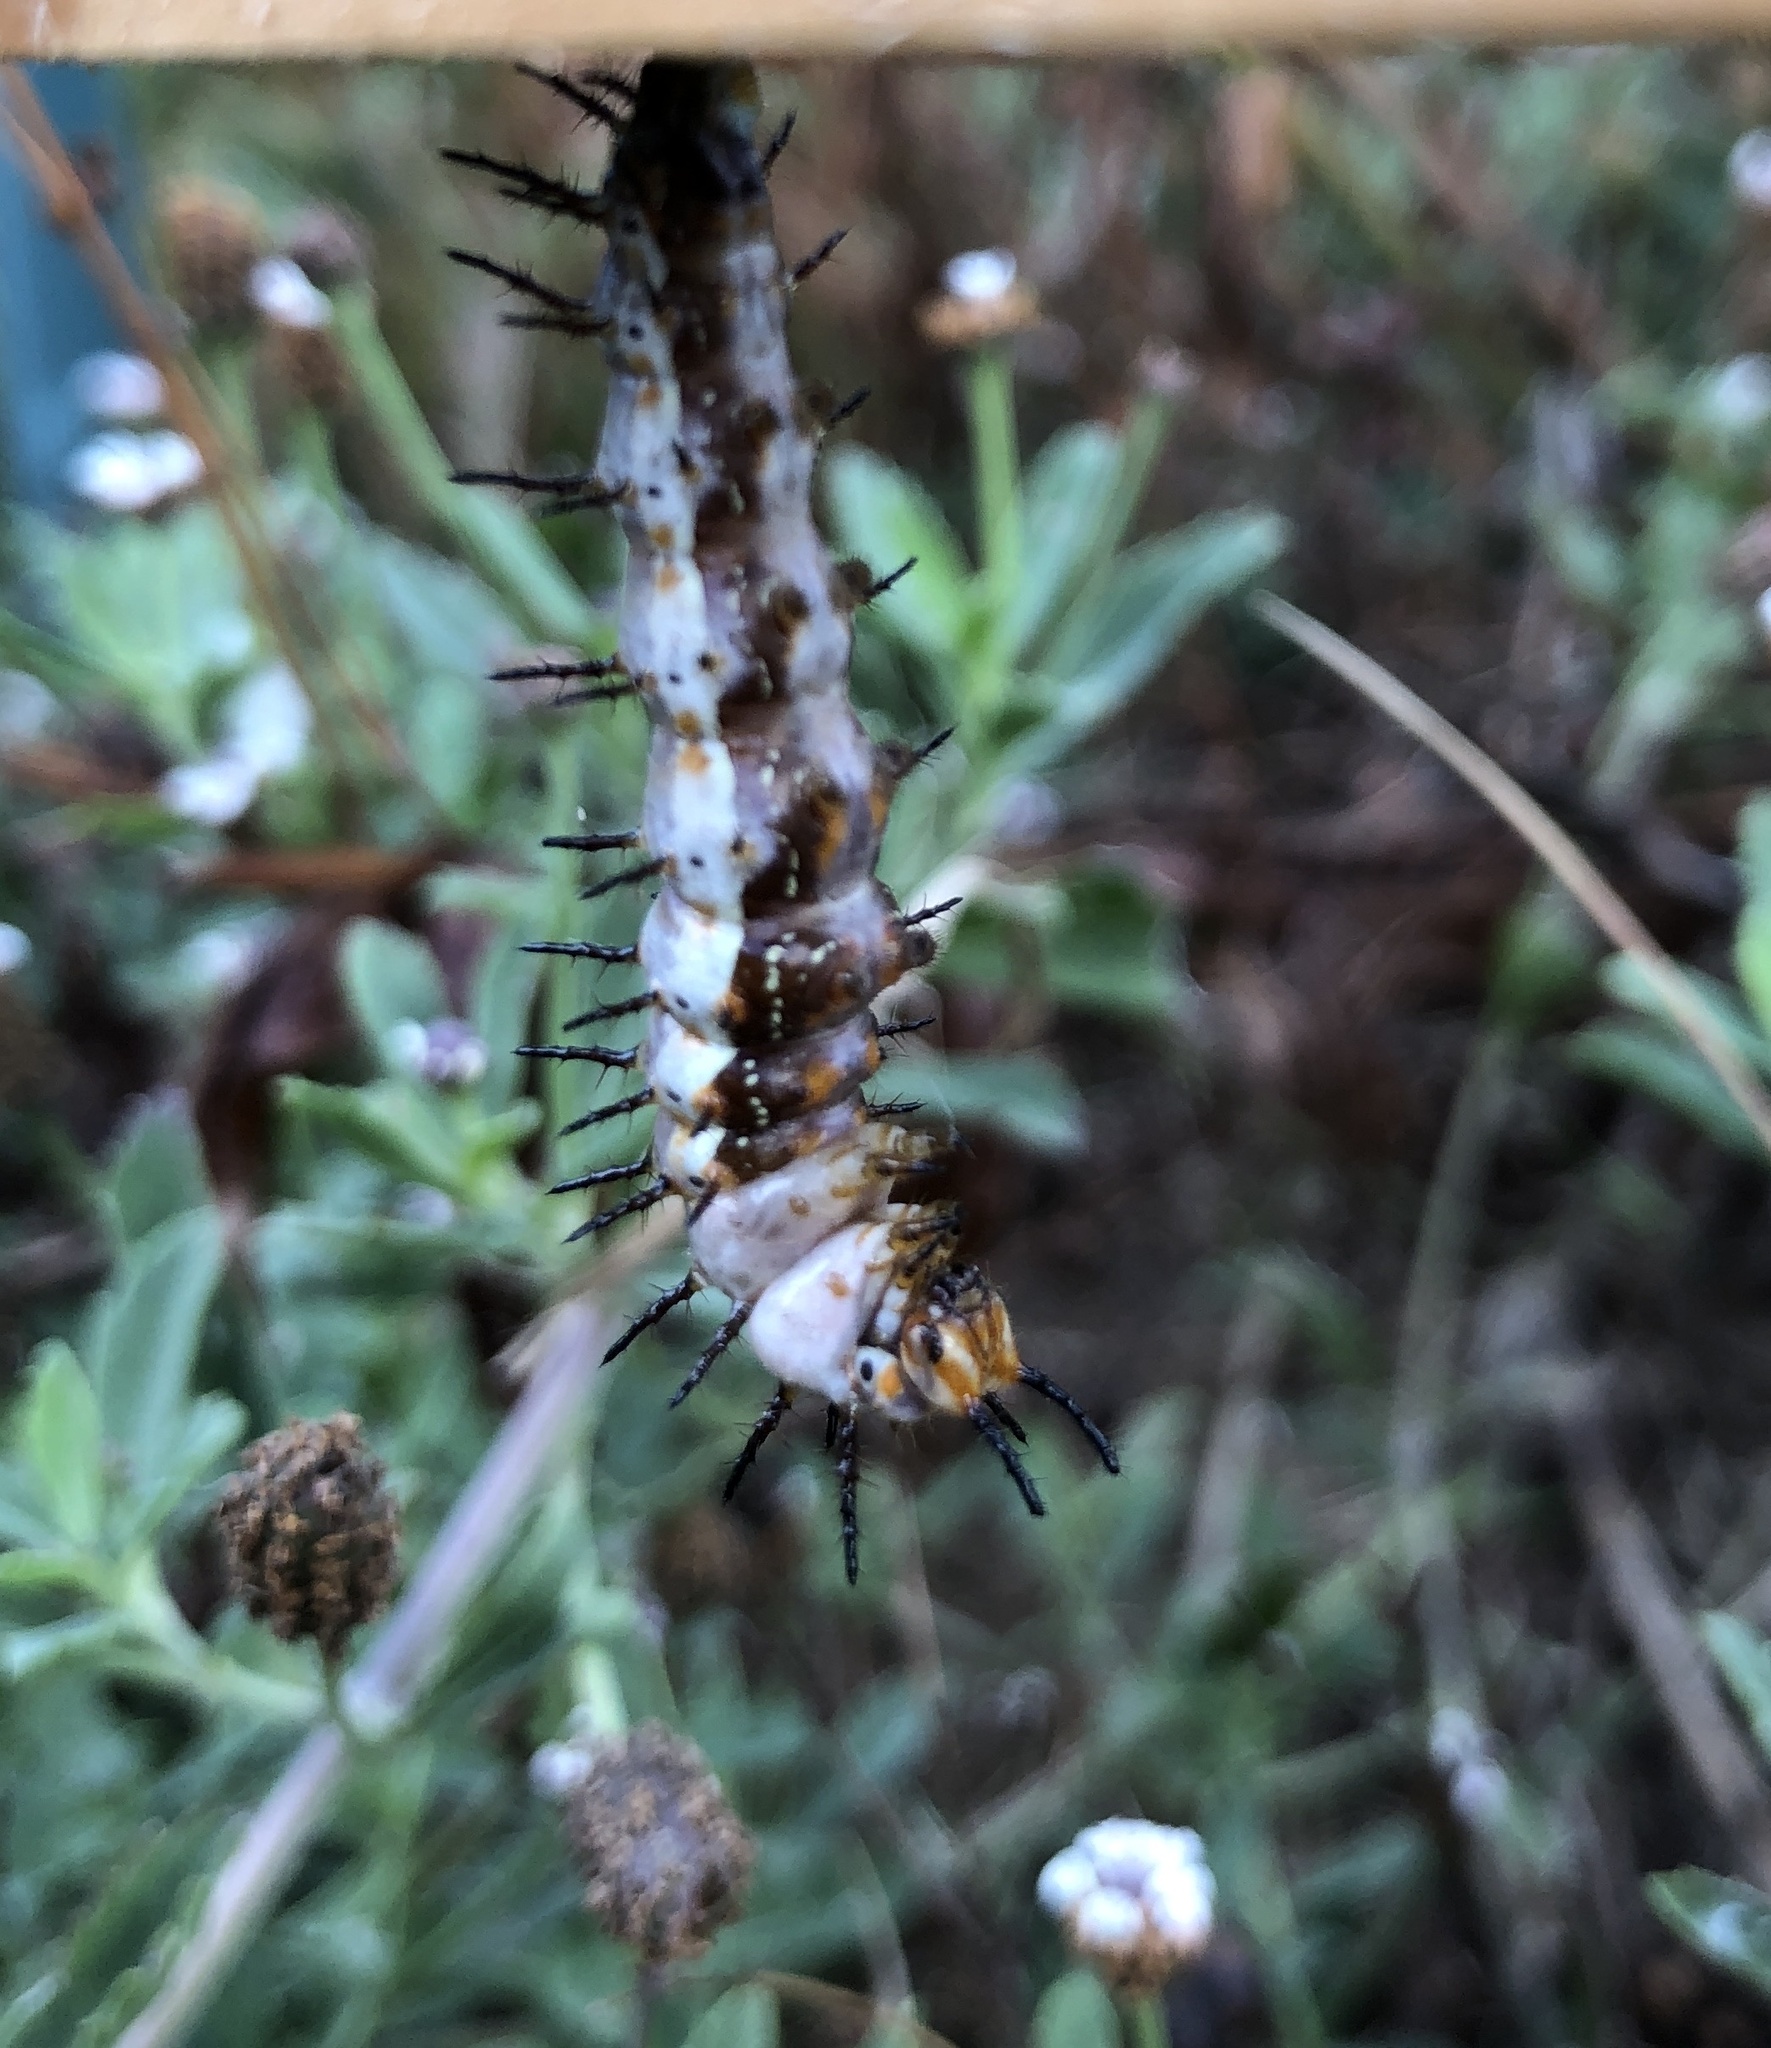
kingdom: Animalia
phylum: Arthropoda
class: Insecta
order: Lepidoptera
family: Nymphalidae
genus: Dione
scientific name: Dione vanillae
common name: Gulf fritillary
